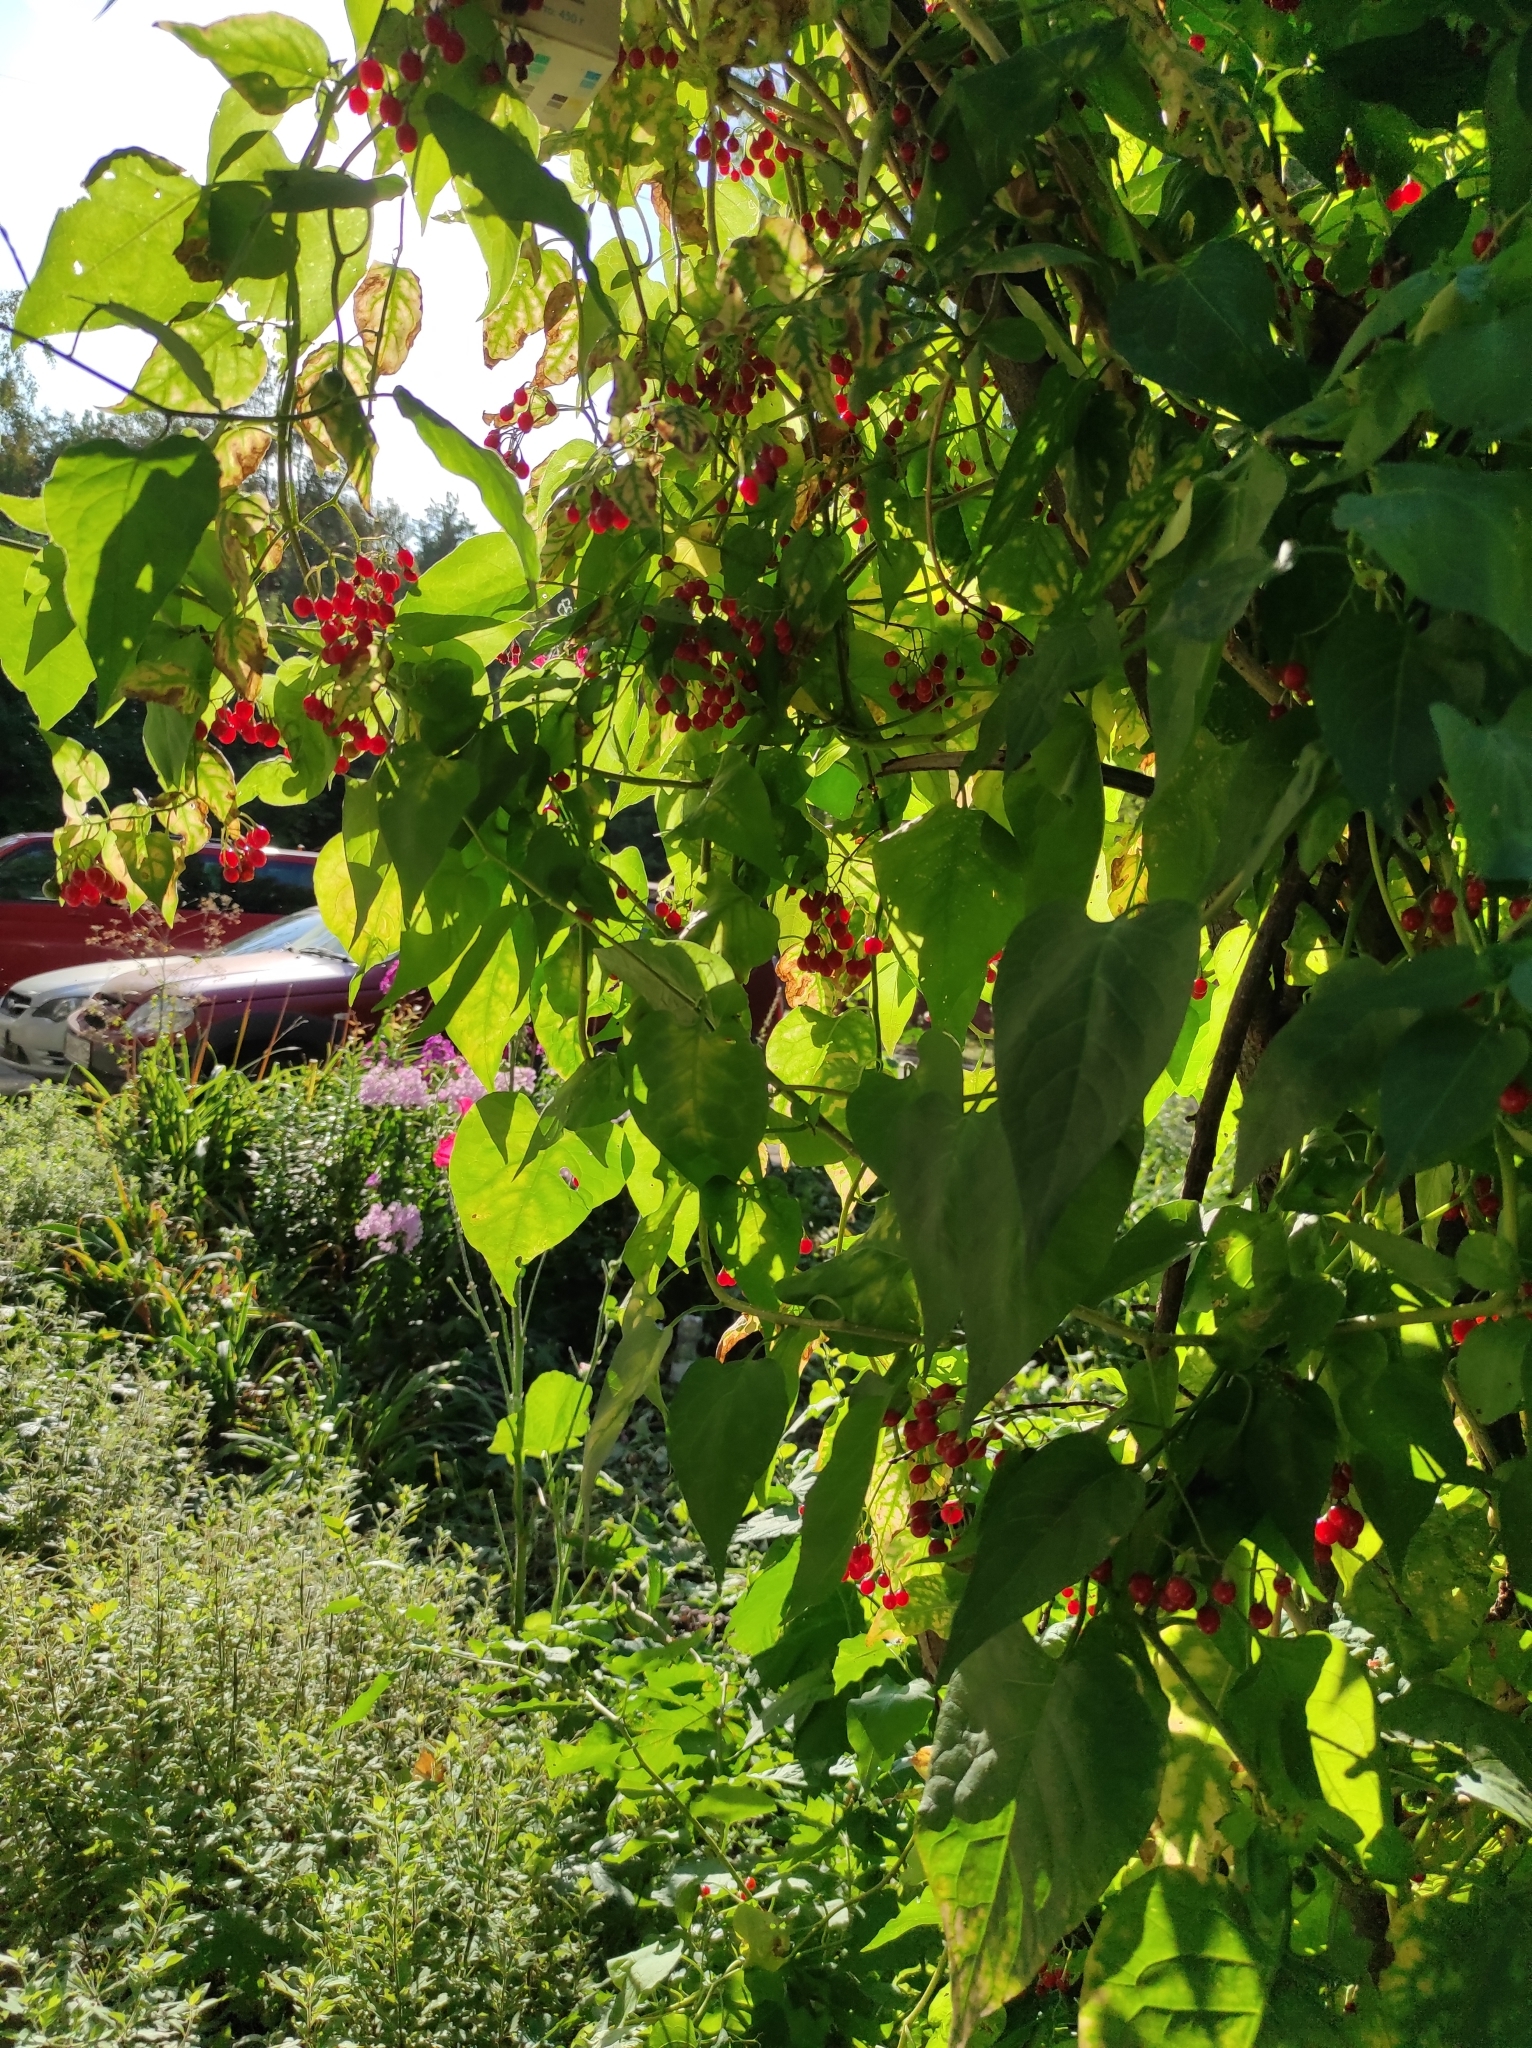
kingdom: Plantae
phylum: Tracheophyta
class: Magnoliopsida
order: Solanales
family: Solanaceae
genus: Solanum
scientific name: Solanum dulcamara
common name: Climbing nightshade
